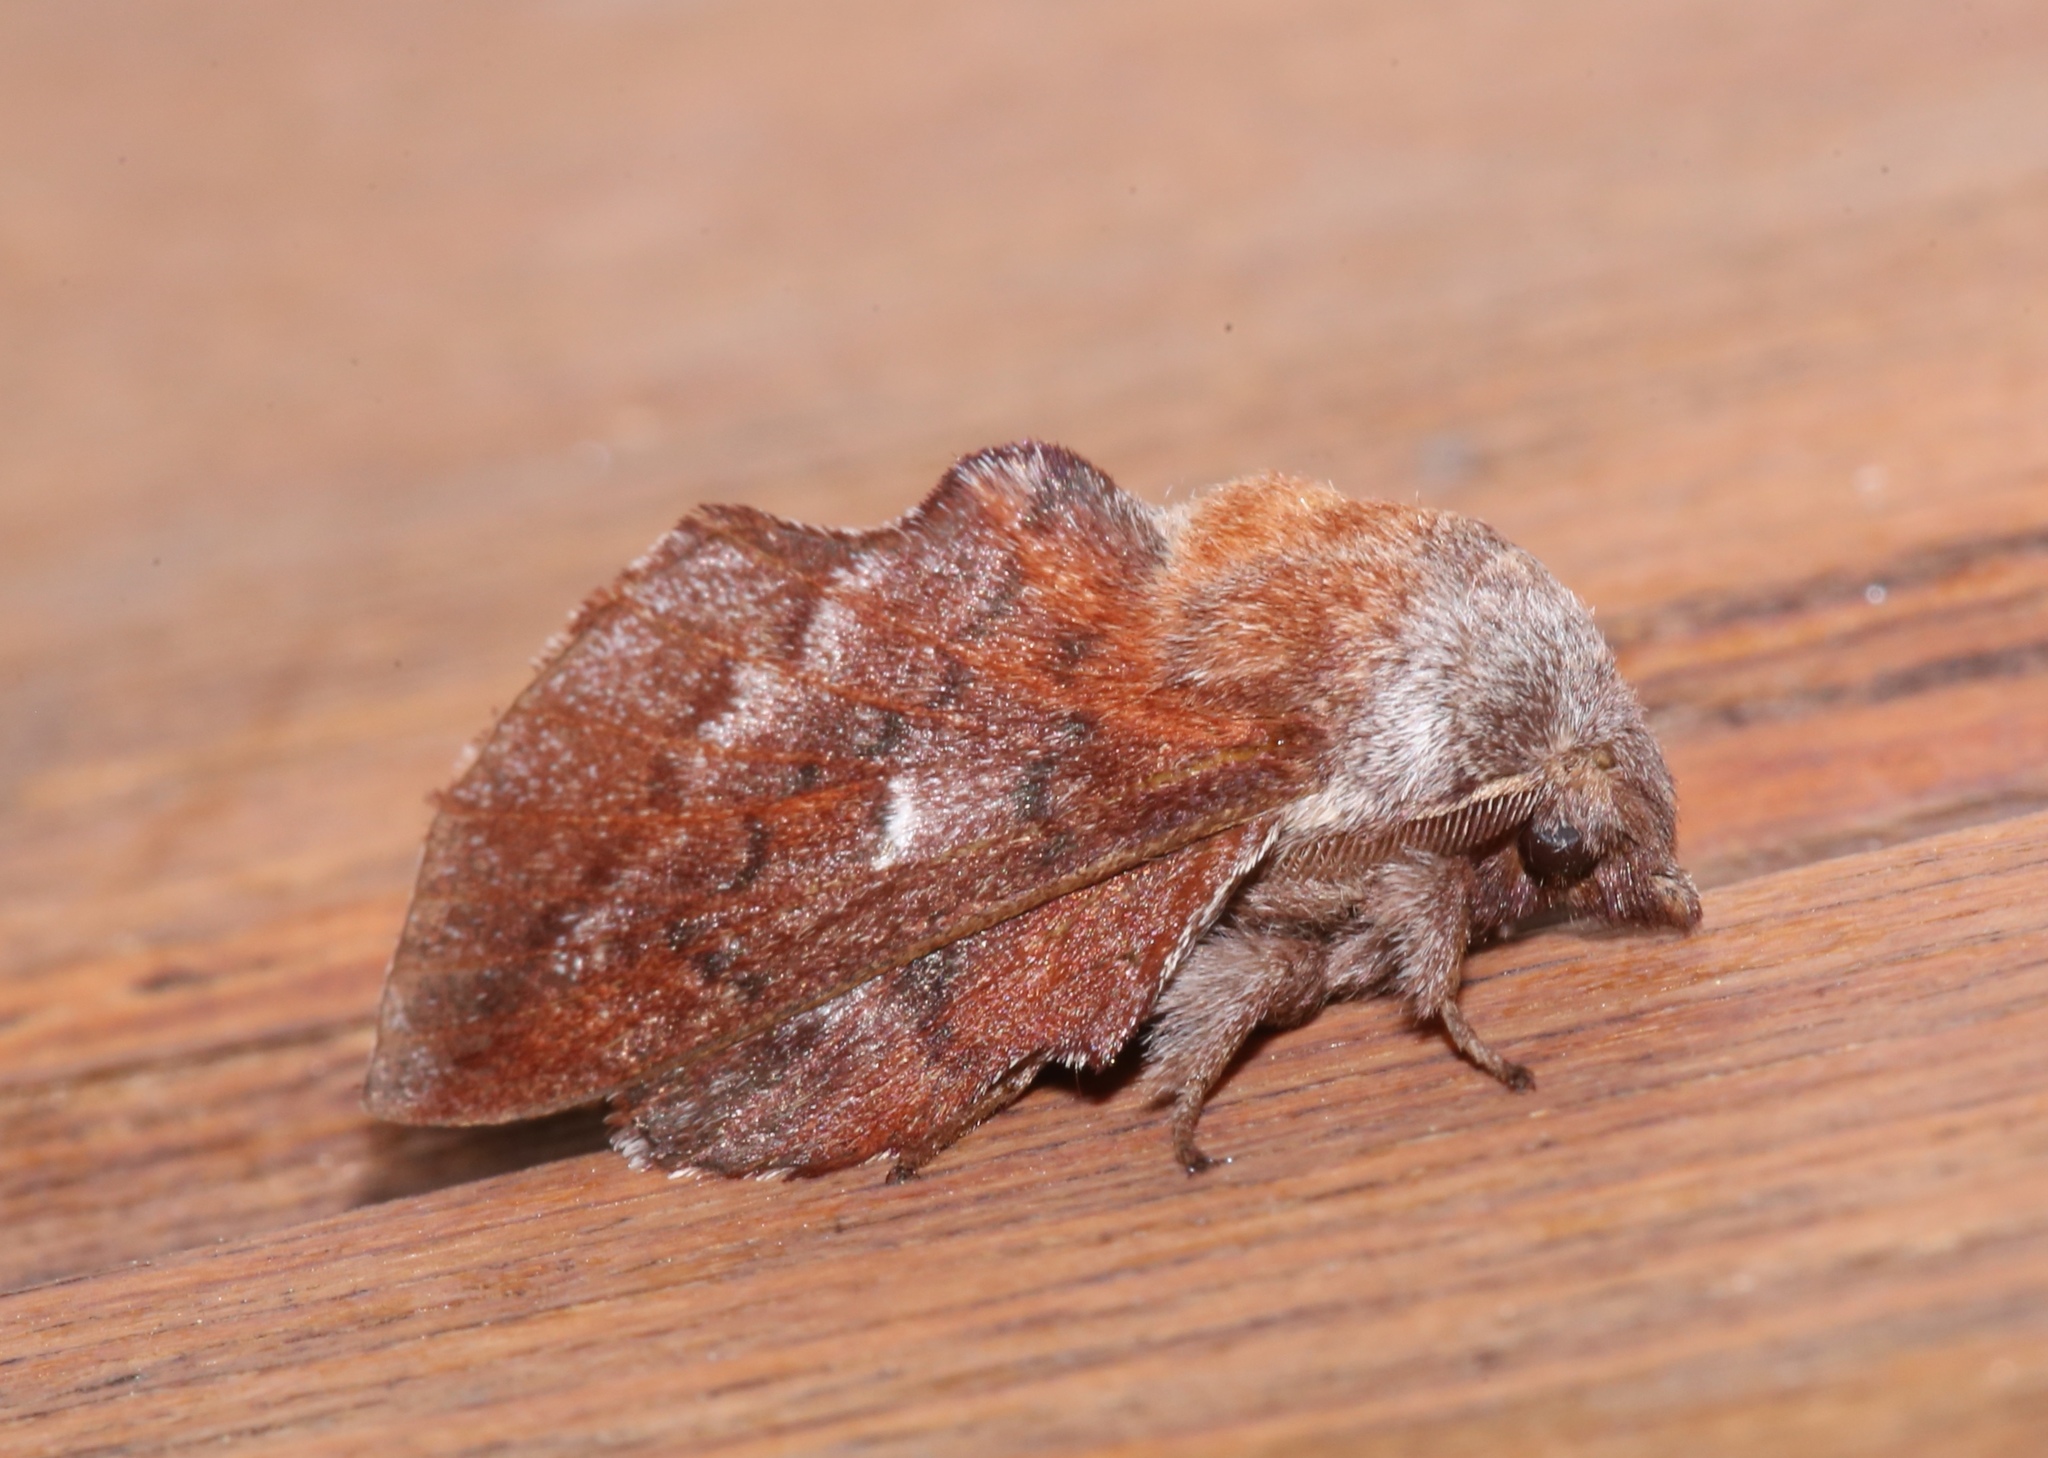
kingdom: Animalia
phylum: Arthropoda
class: Insecta
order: Lepidoptera
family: Lasiocampidae
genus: Phyllodesma
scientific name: Phyllodesma americana
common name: American lappet moth
